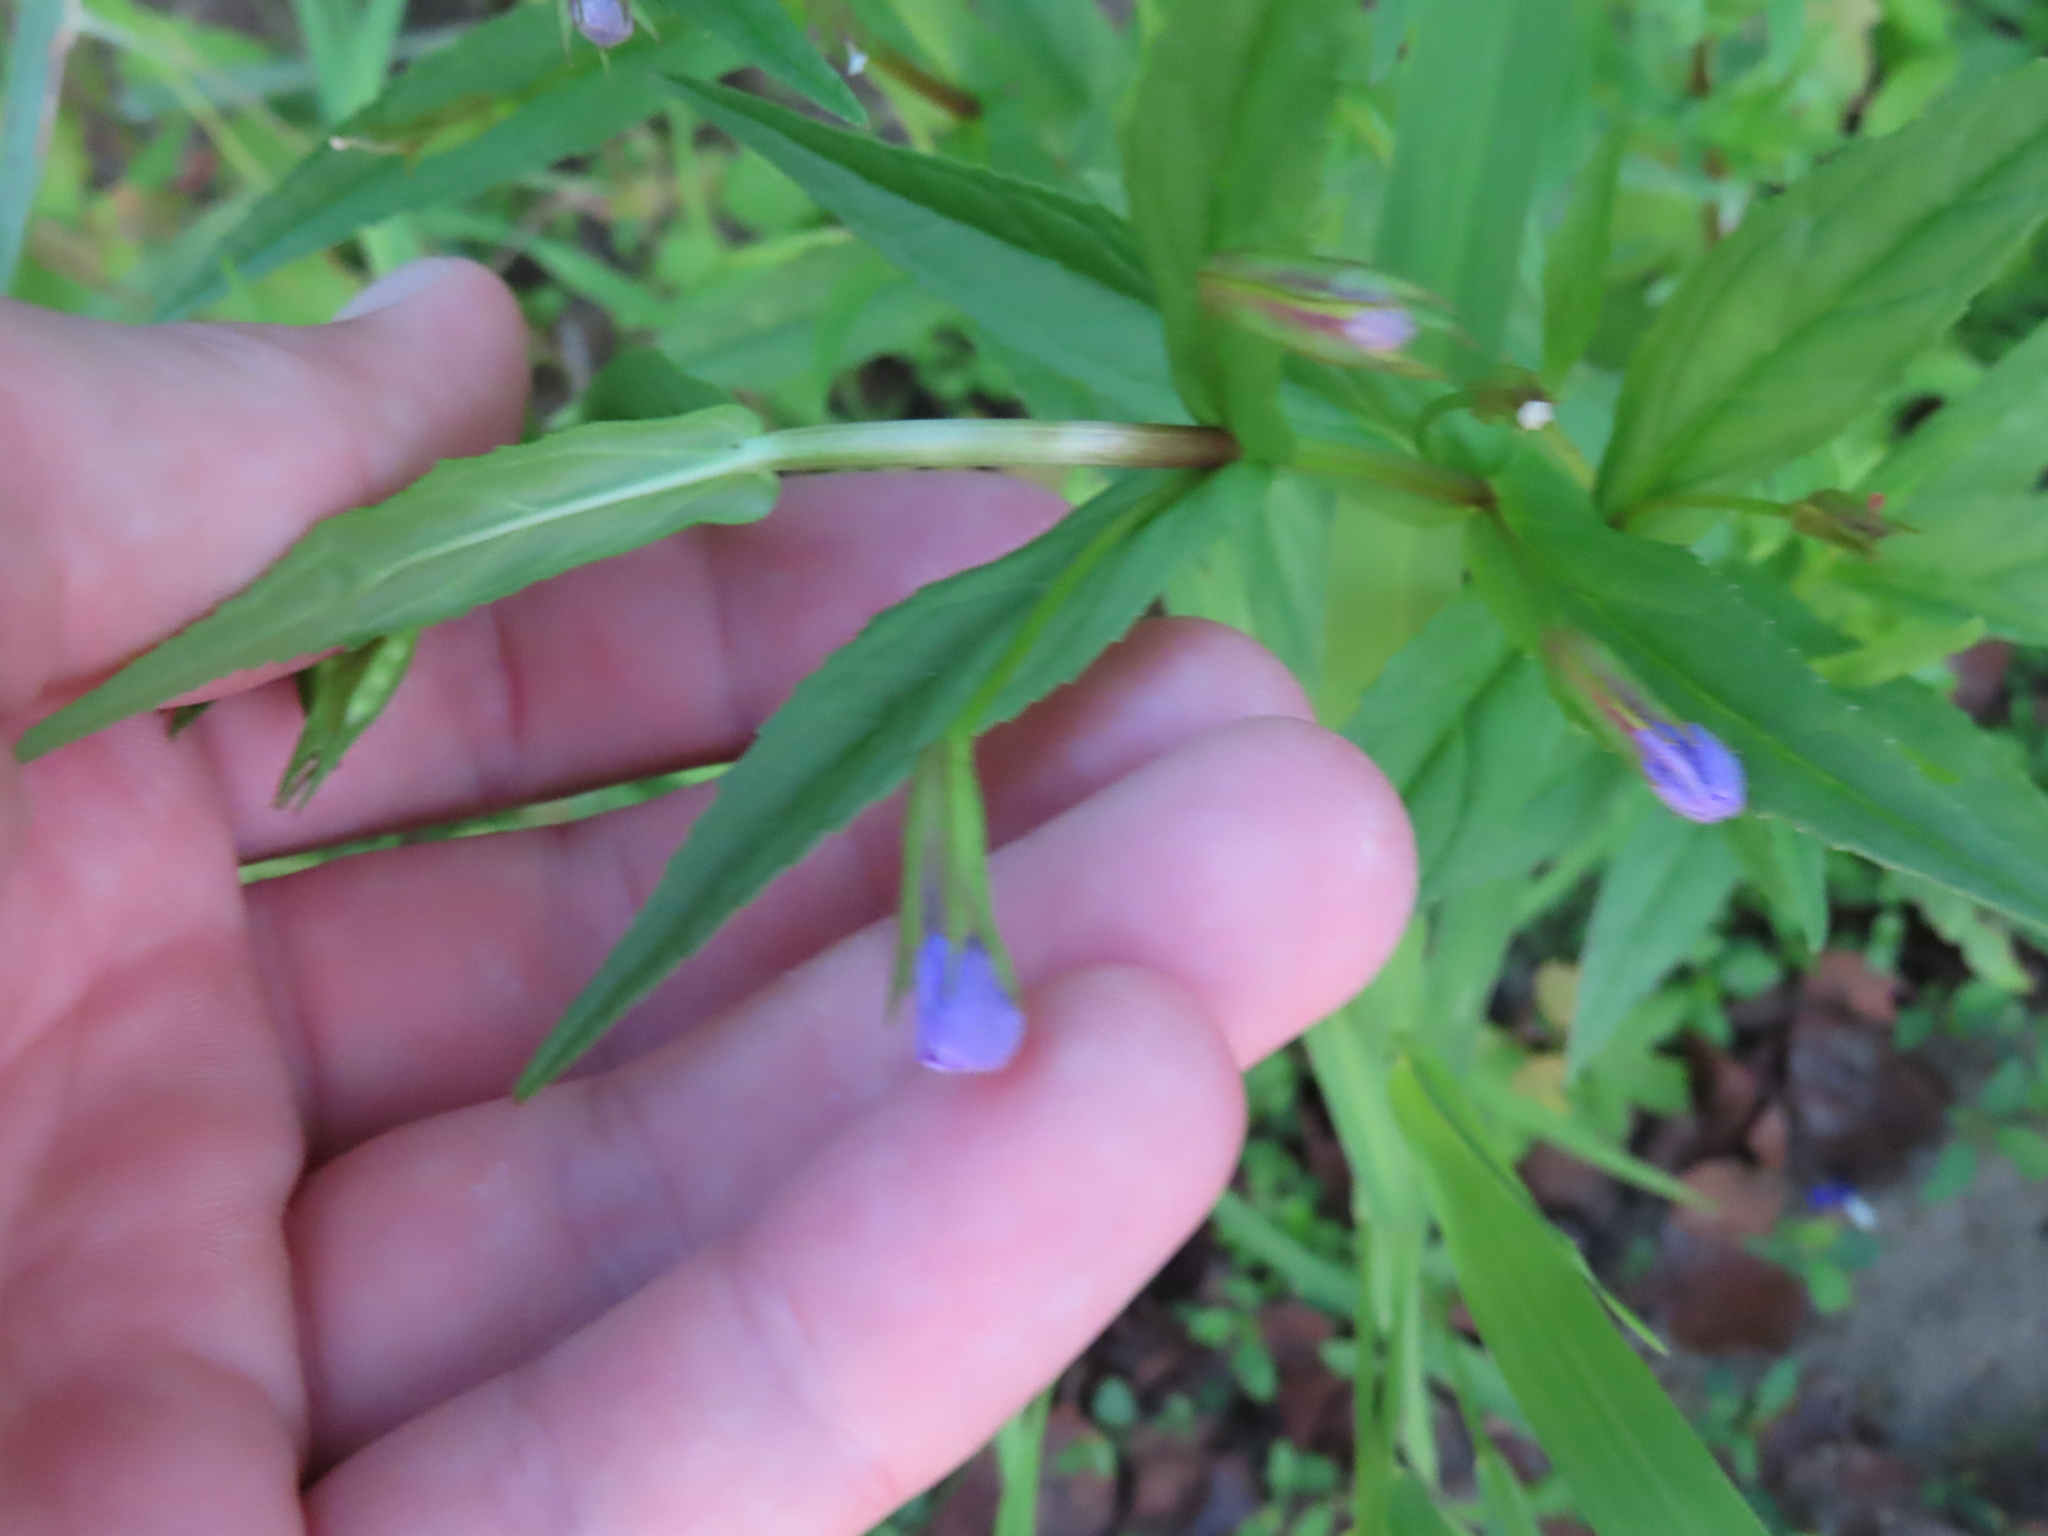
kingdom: Plantae
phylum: Tracheophyta
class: Magnoliopsida
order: Lamiales
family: Phrymaceae
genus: Mimulus
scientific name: Mimulus ringens
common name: Allegheny monkeyflower
